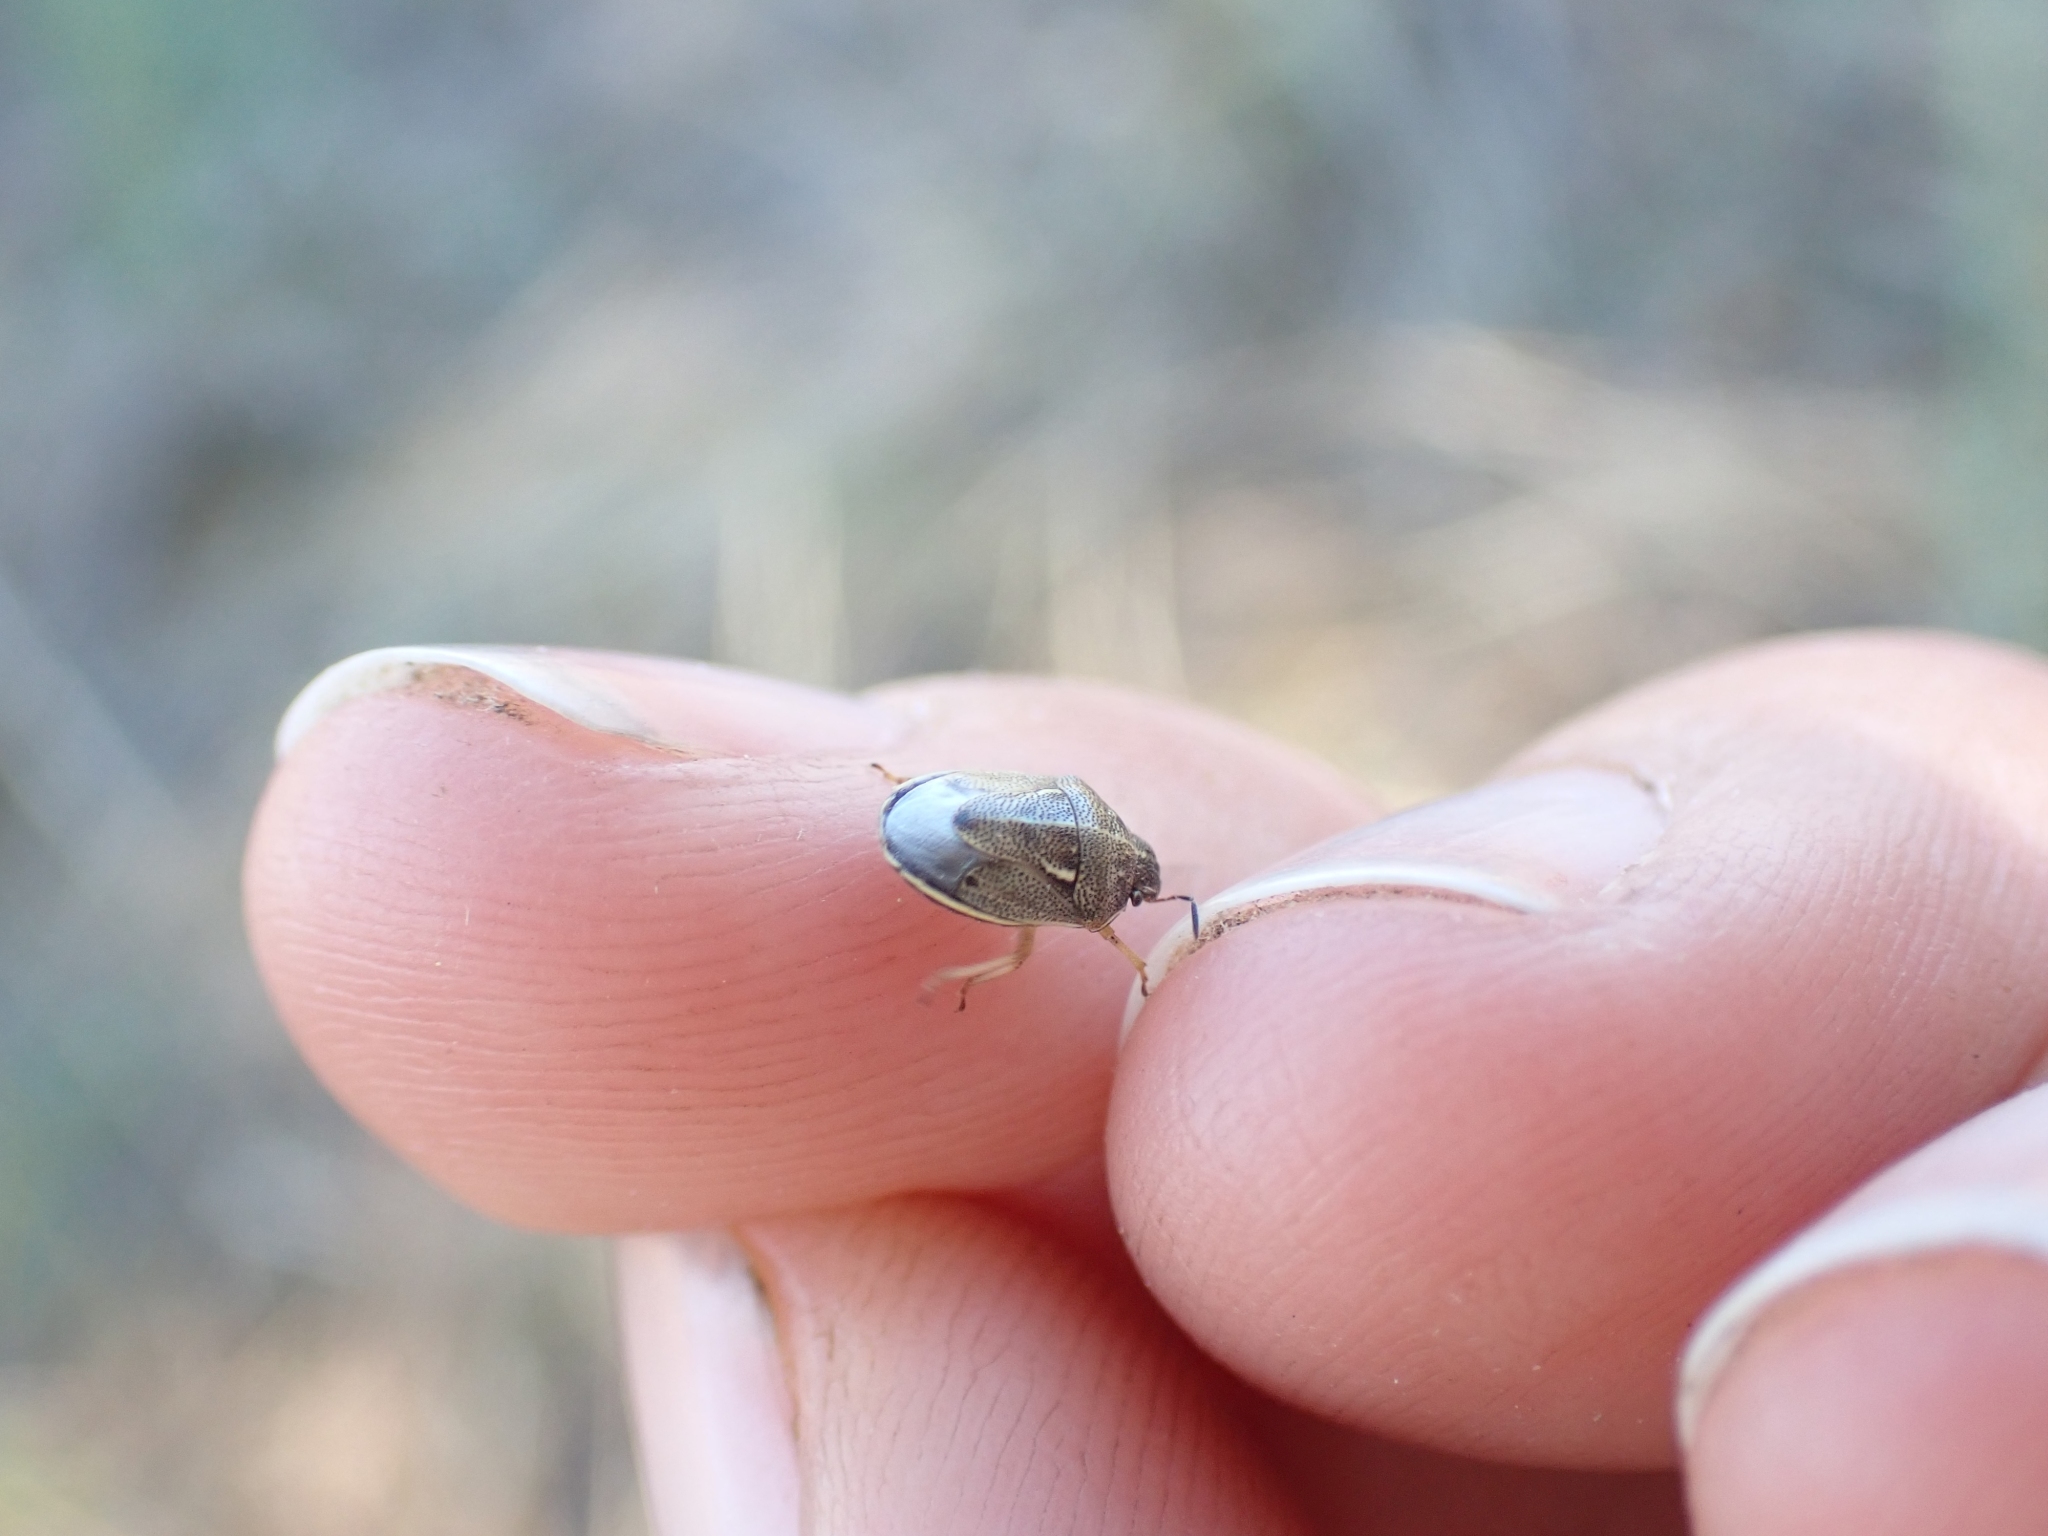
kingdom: Animalia
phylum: Arthropoda
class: Insecta
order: Hemiptera
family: Pentatomidae
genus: Neottiglossa
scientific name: Neottiglossa undata
